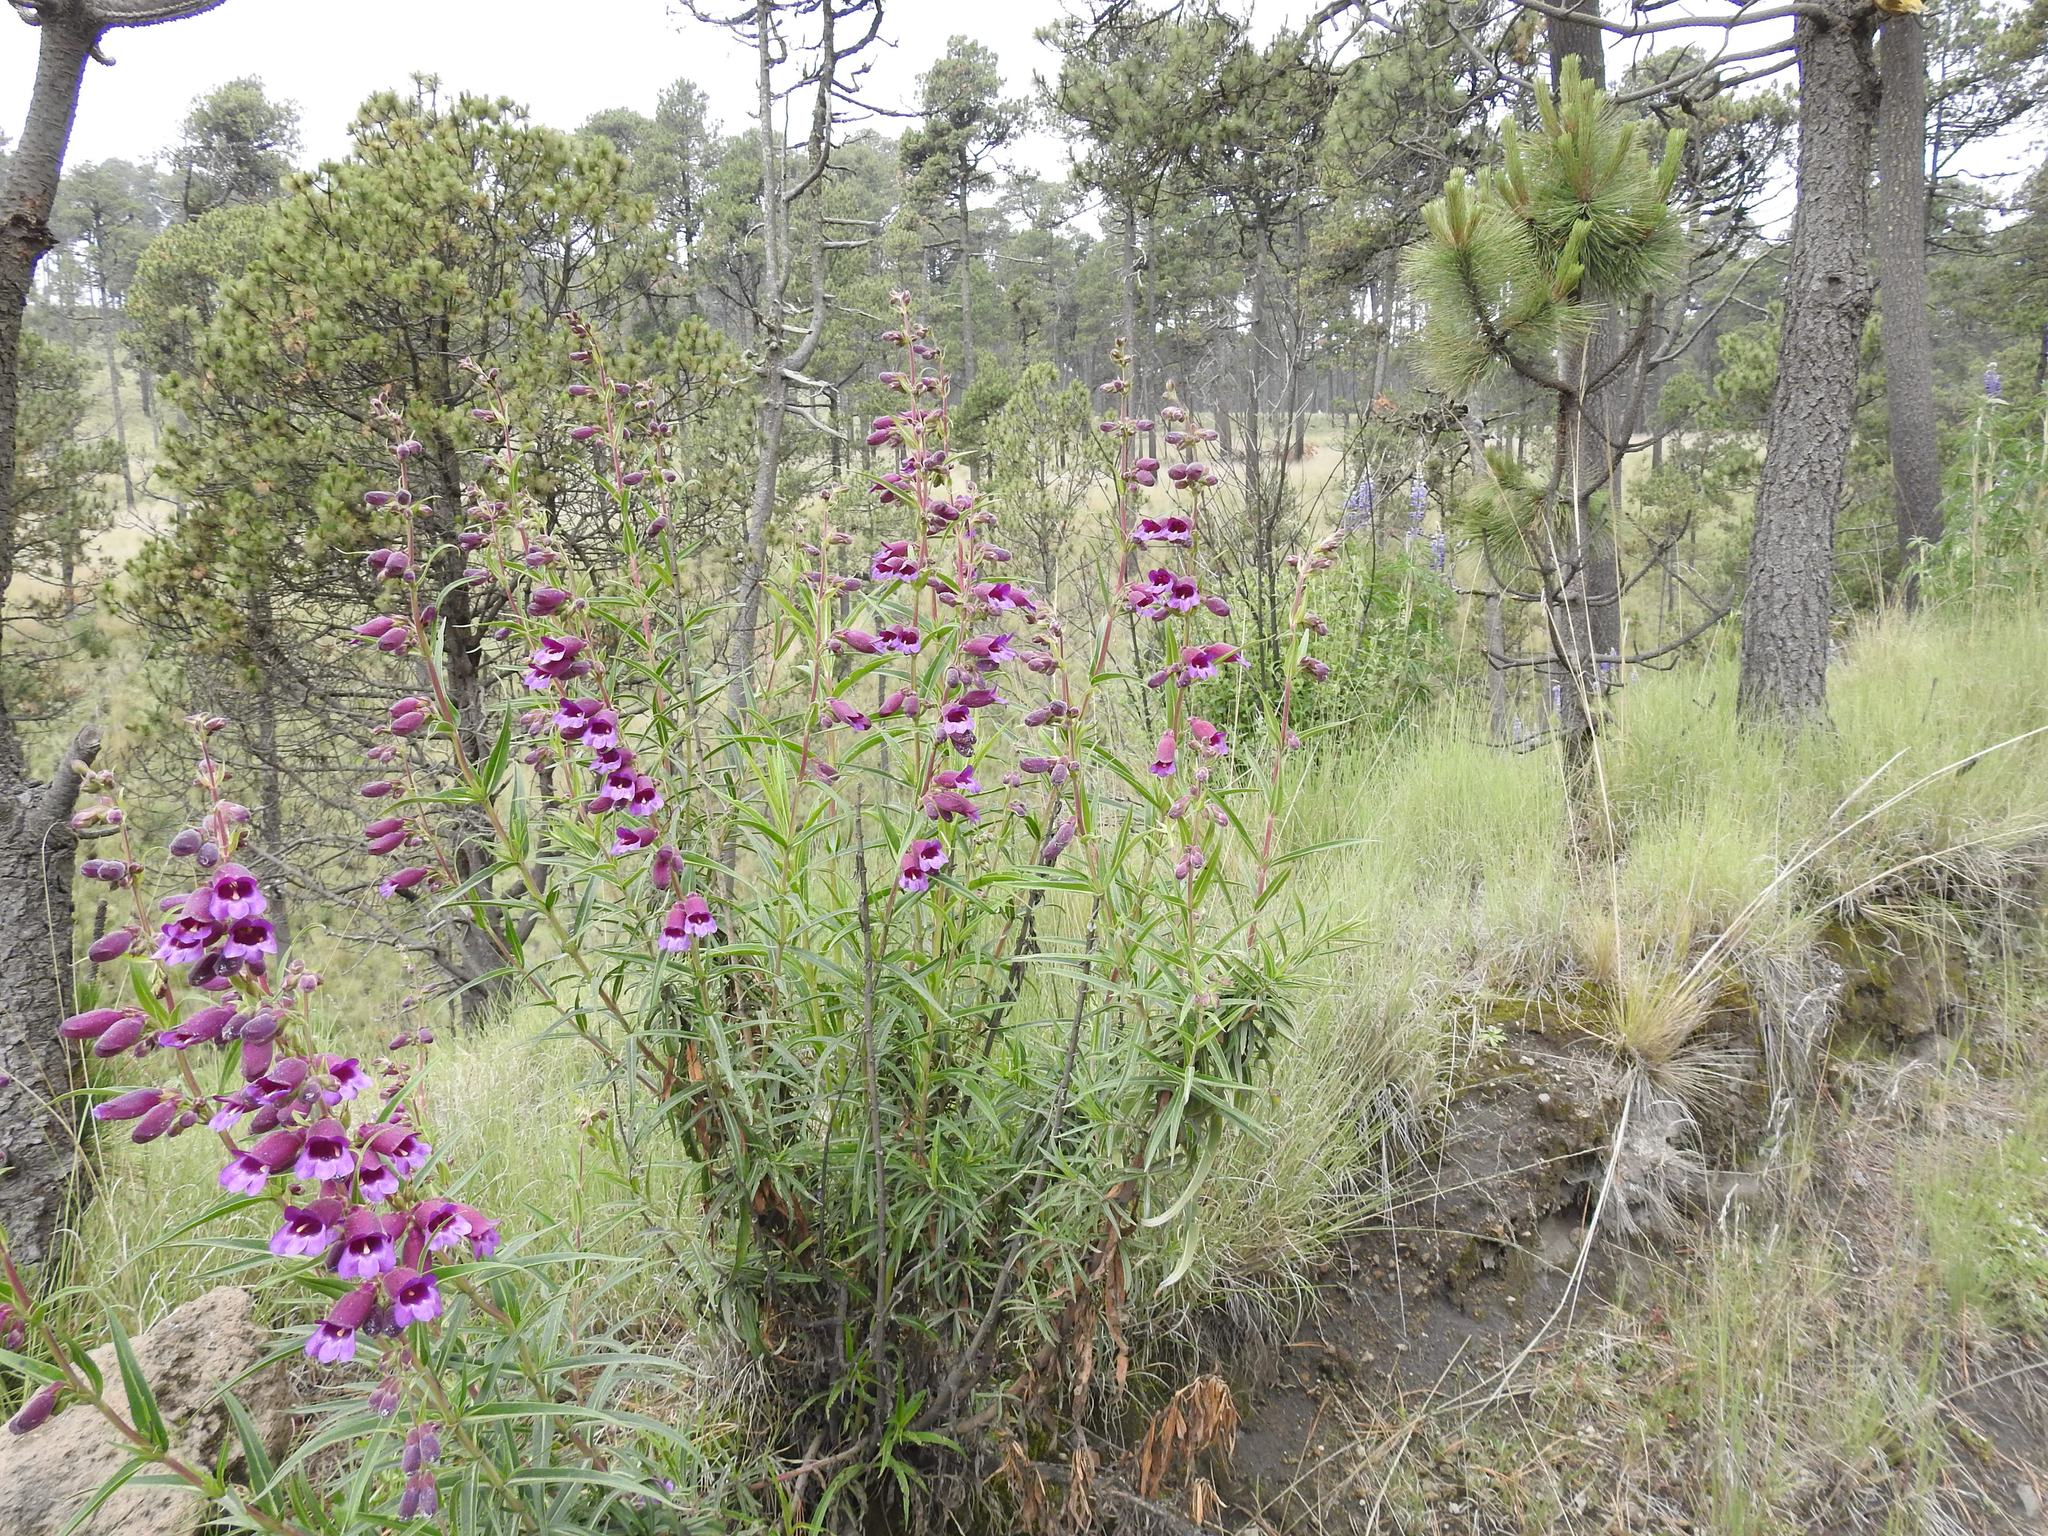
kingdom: Plantae
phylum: Tracheophyta
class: Magnoliopsida
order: Lamiales
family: Plantaginaceae
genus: Penstemon
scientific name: Penstemon gentianoides
